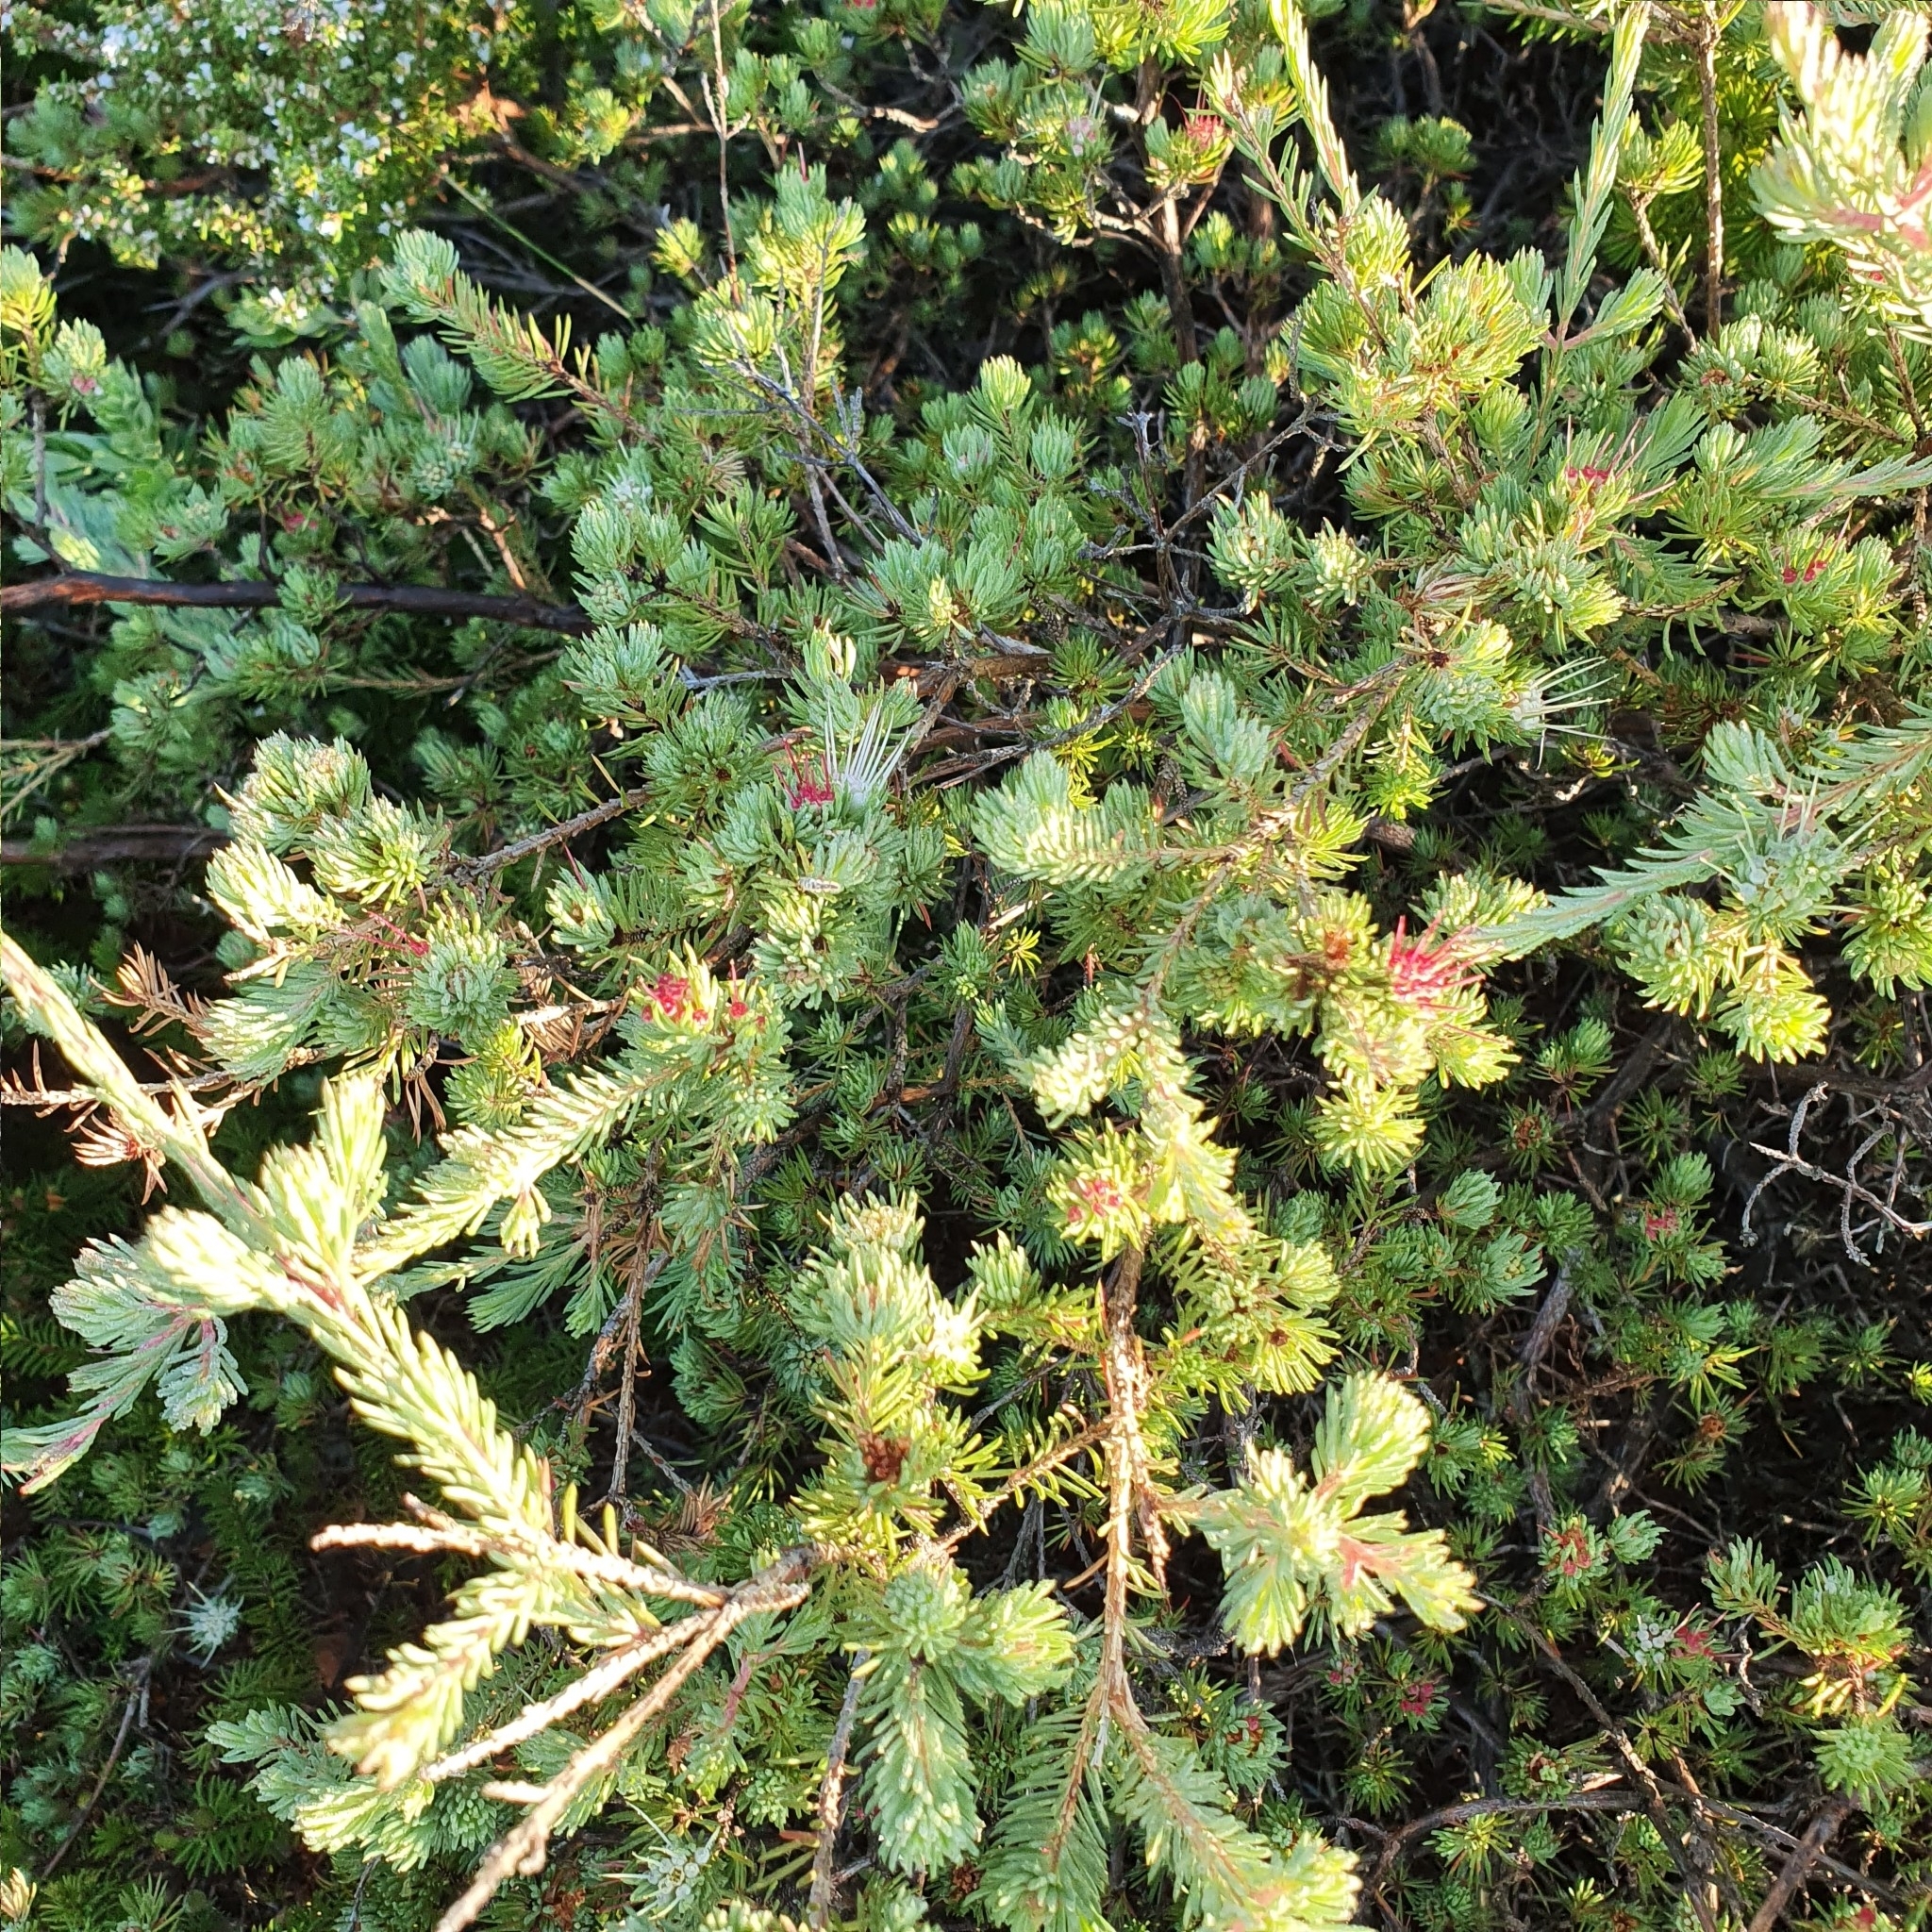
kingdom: Plantae
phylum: Tracheophyta
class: Magnoliopsida
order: Myrtales
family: Myrtaceae
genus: Darwinia
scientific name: Darwinia fascicularis
